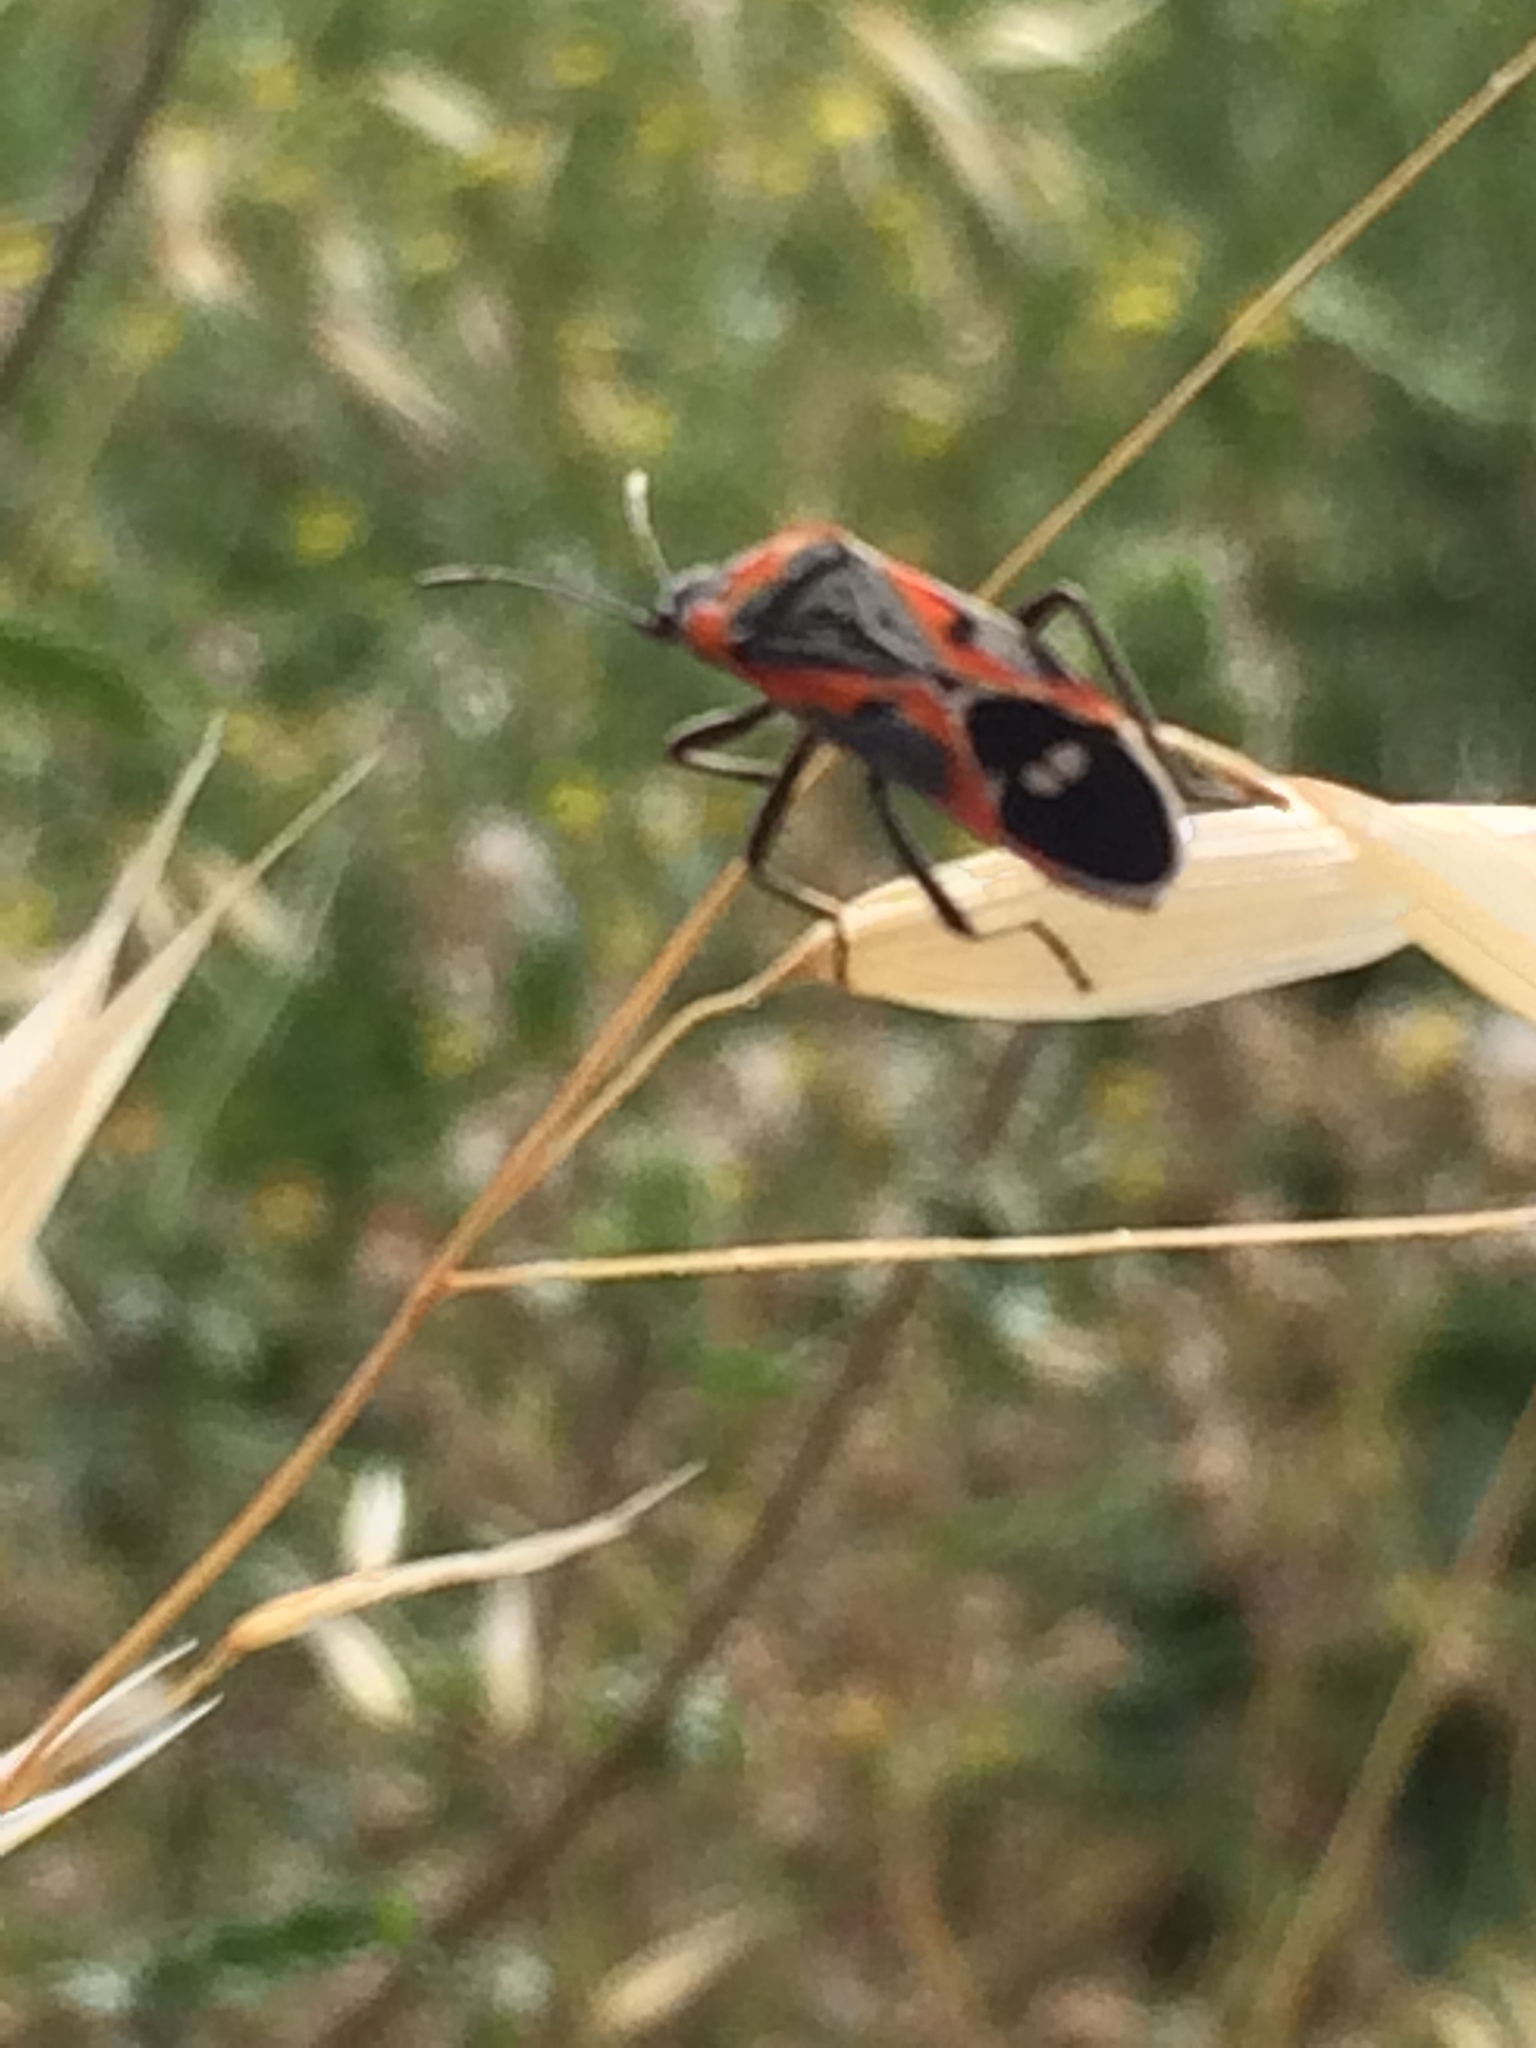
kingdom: Animalia
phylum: Arthropoda
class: Insecta
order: Hemiptera
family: Lygaeidae
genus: Lygaeus
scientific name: Lygaeus kalmii
